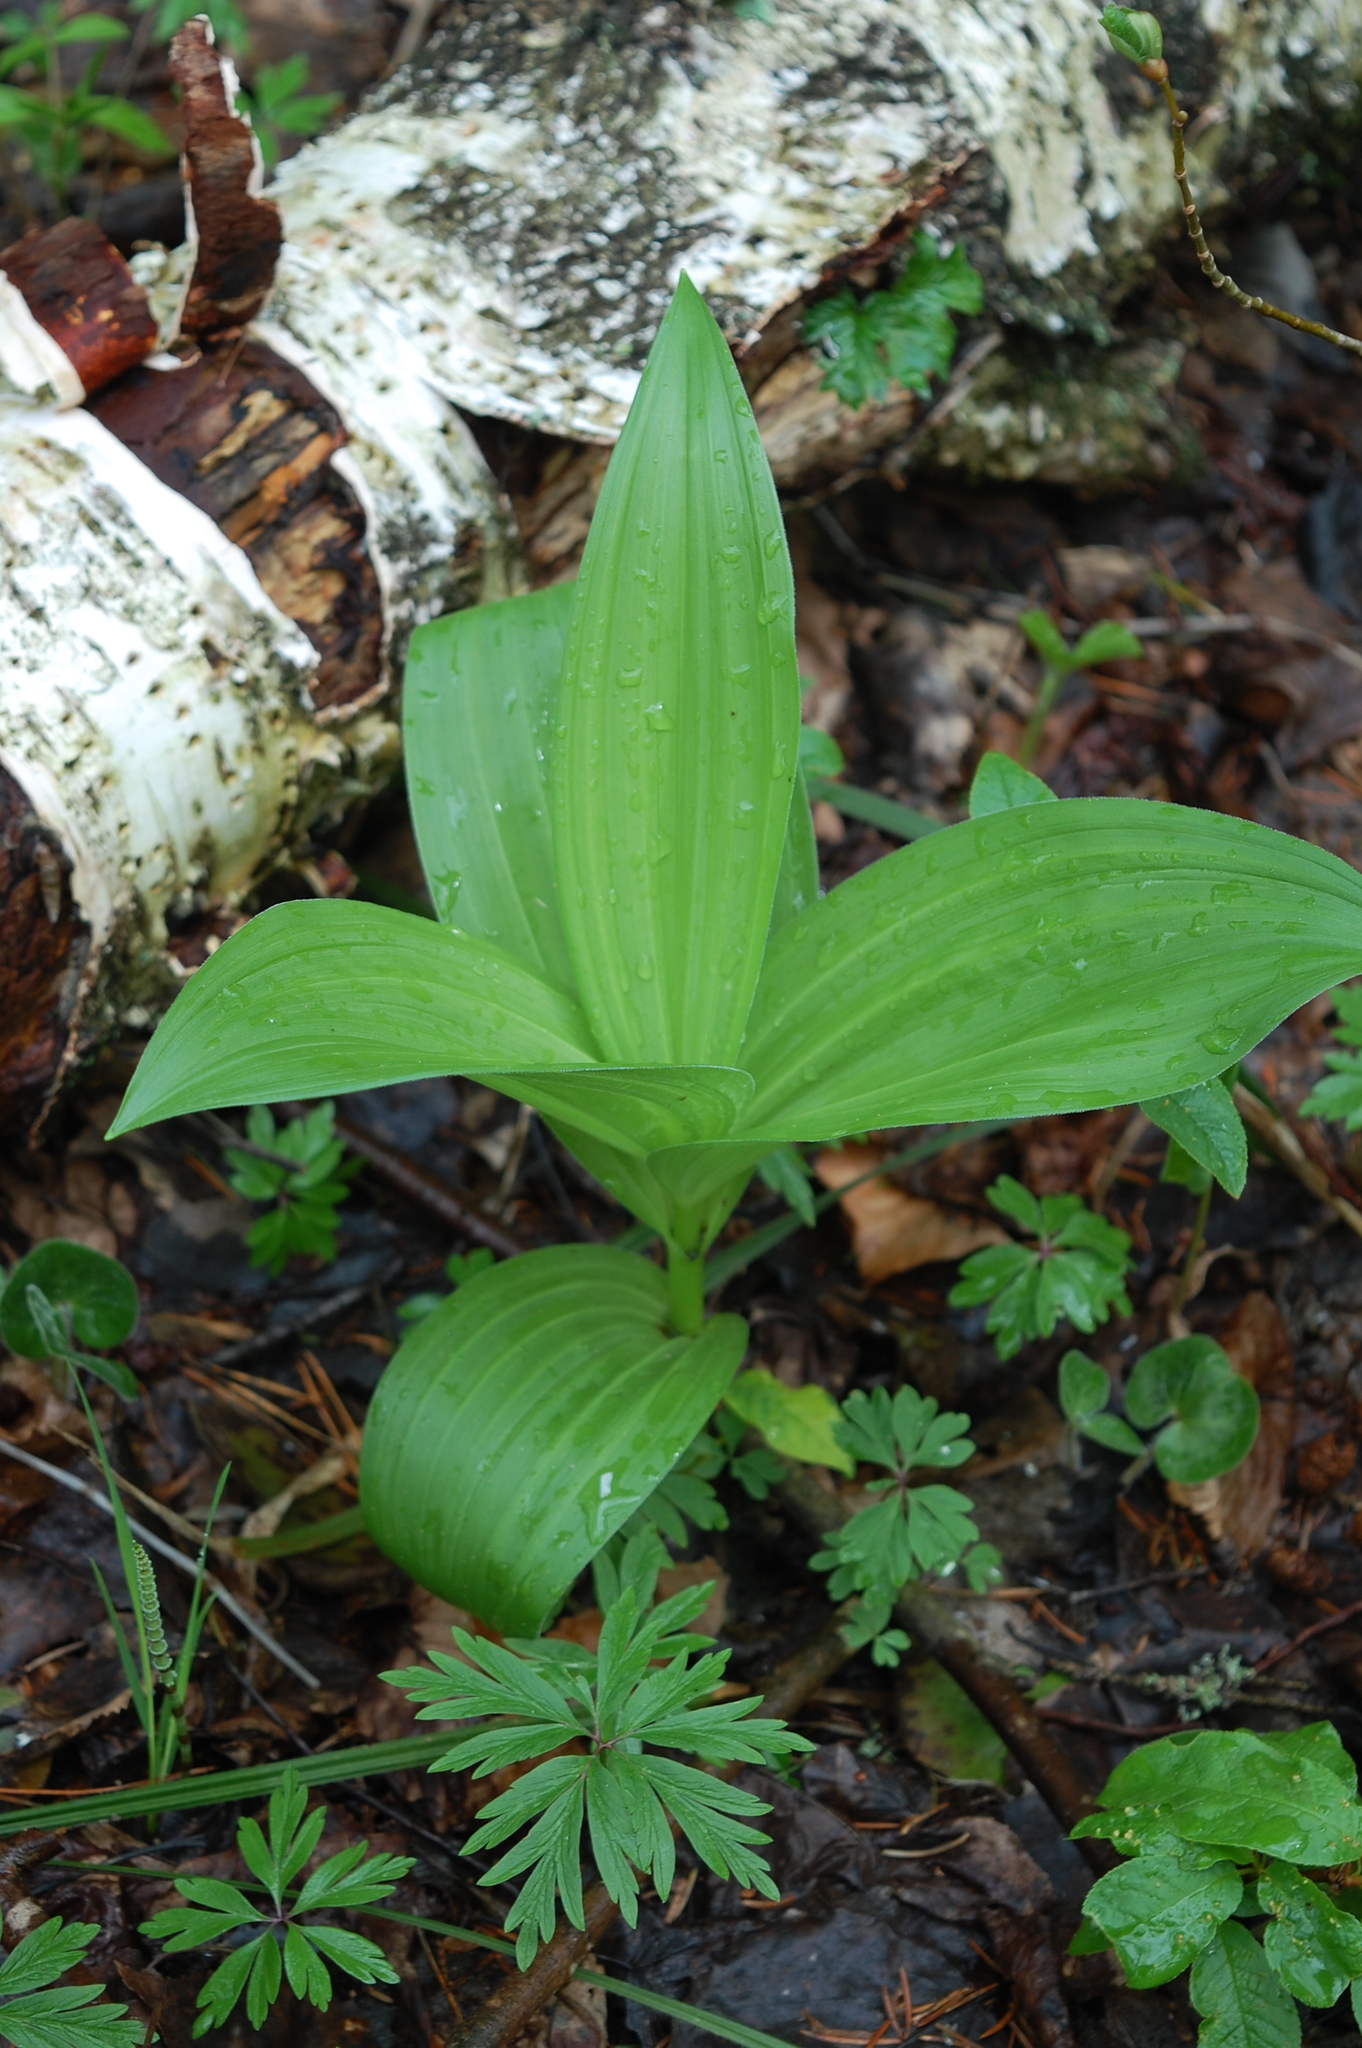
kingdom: Plantae
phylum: Tracheophyta
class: Liliopsida
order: Liliales
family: Melanthiaceae
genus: Veratrum
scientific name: Veratrum lobelianum
